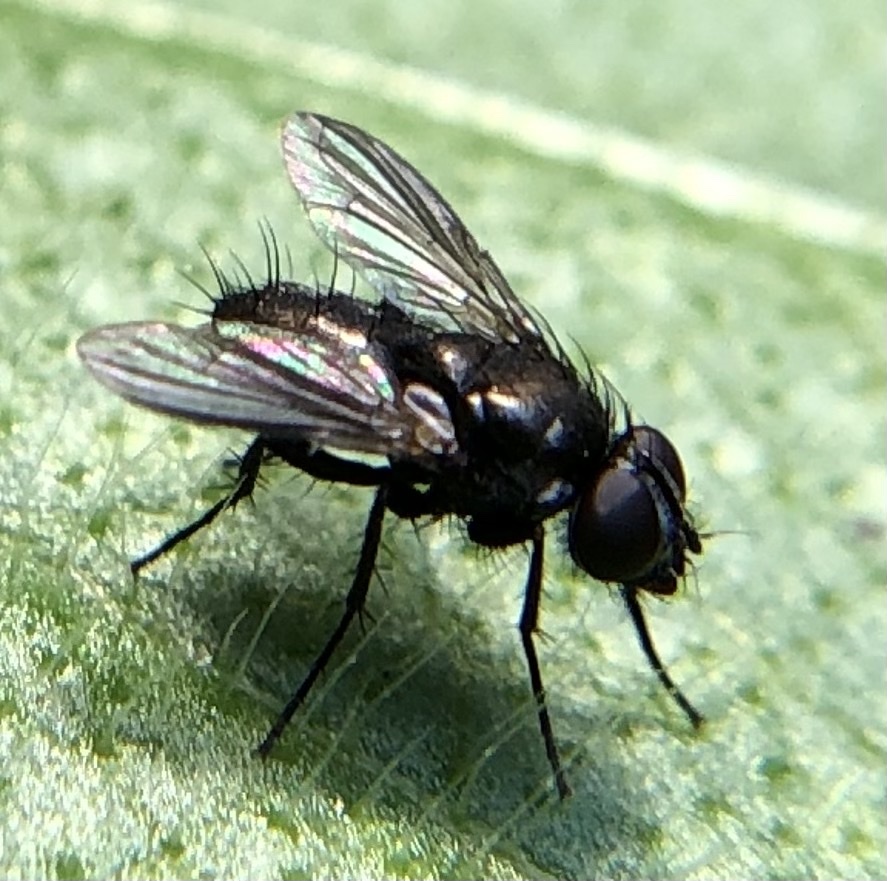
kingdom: Animalia
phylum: Arthropoda
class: Insecta
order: Diptera
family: Calliphoridae
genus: Rhinophora
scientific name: Rhinophora lepida
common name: Pouting woodlouse-fly
